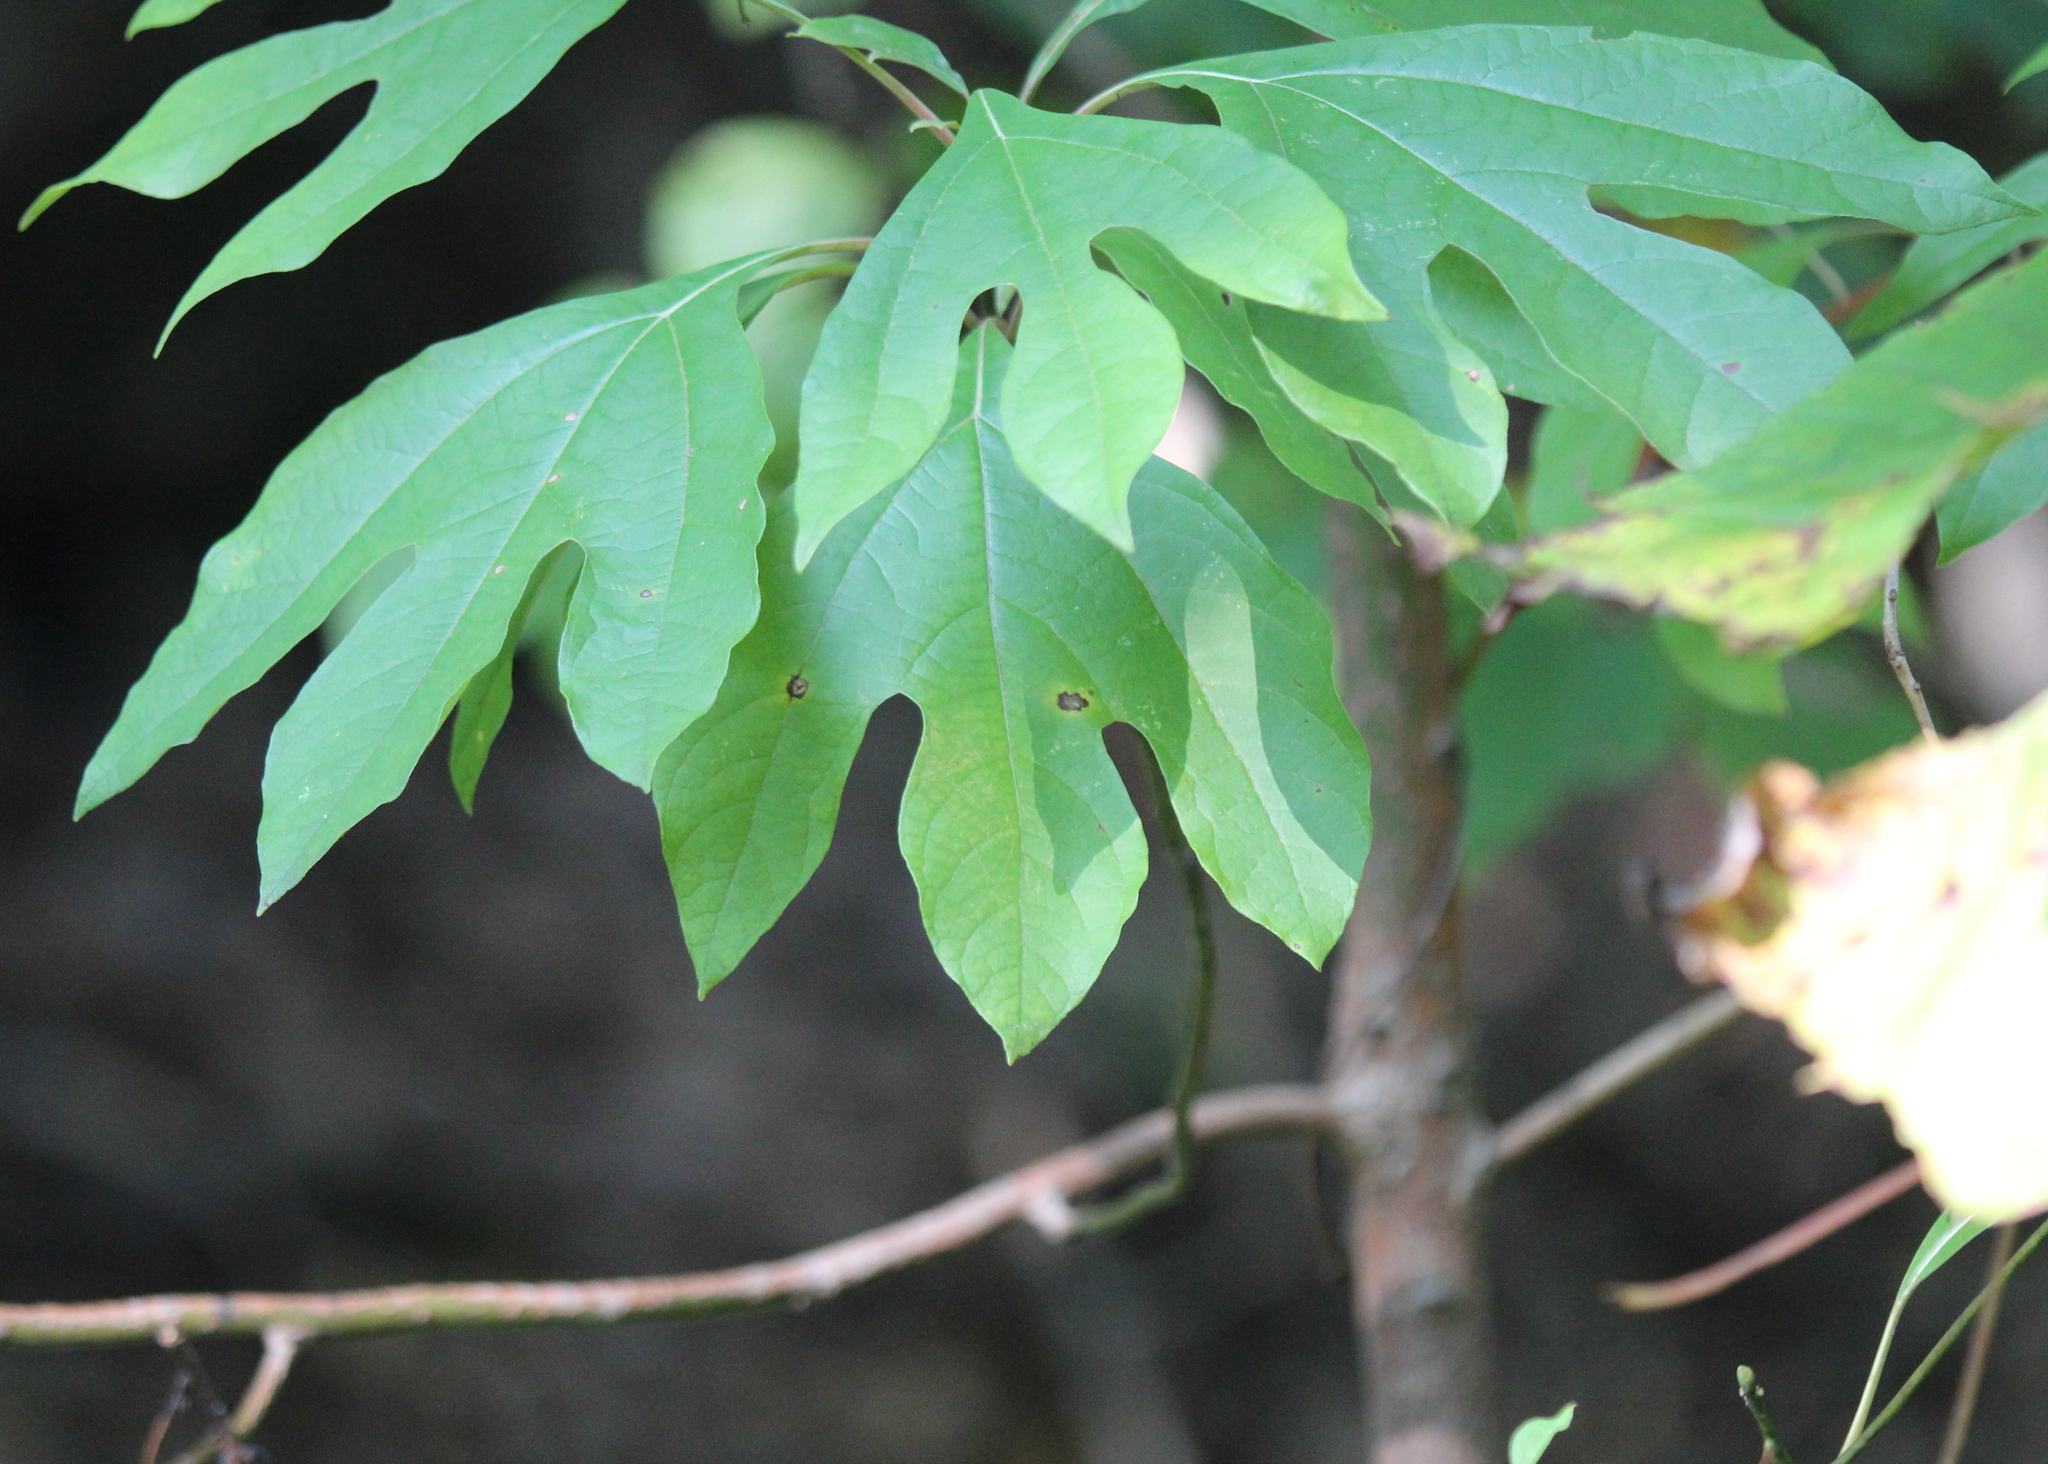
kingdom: Plantae
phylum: Tracheophyta
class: Magnoliopsida
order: Laurales
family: Lauraceae
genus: Sassafras
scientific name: Sassafras albidum
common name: Sassafras
